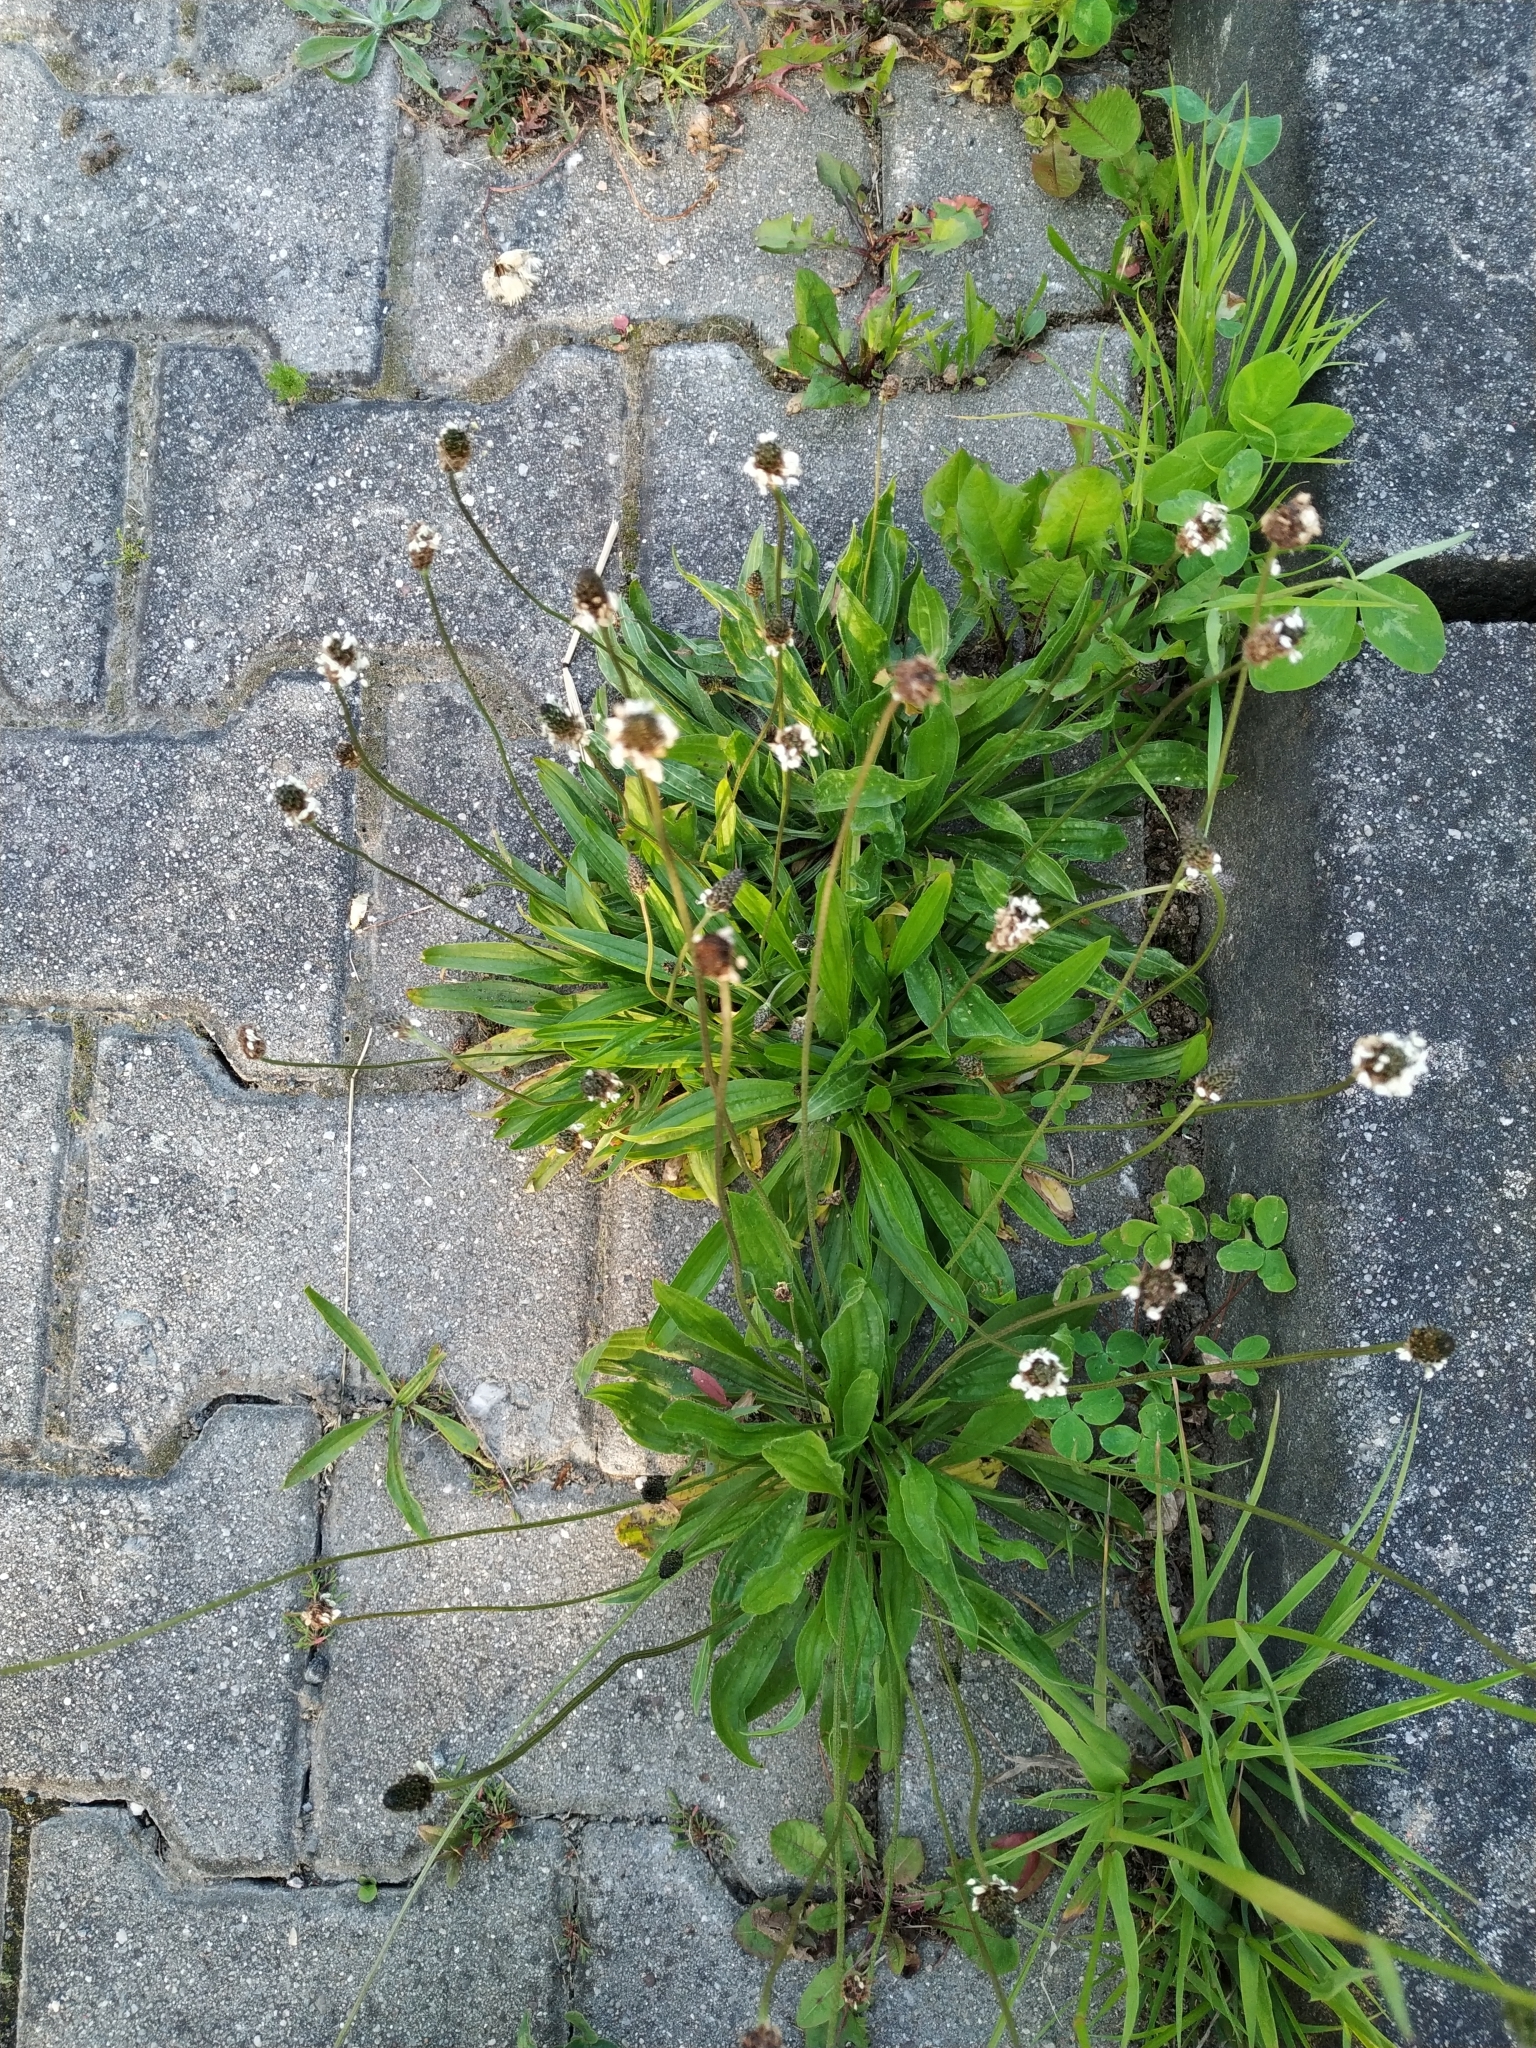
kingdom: Plantae
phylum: Tracheophyta
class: Magnoliopsida
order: Lamiales
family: Plantaginaceae
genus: Plantago
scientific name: Plantago lanceolata
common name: Ribwort plantain
